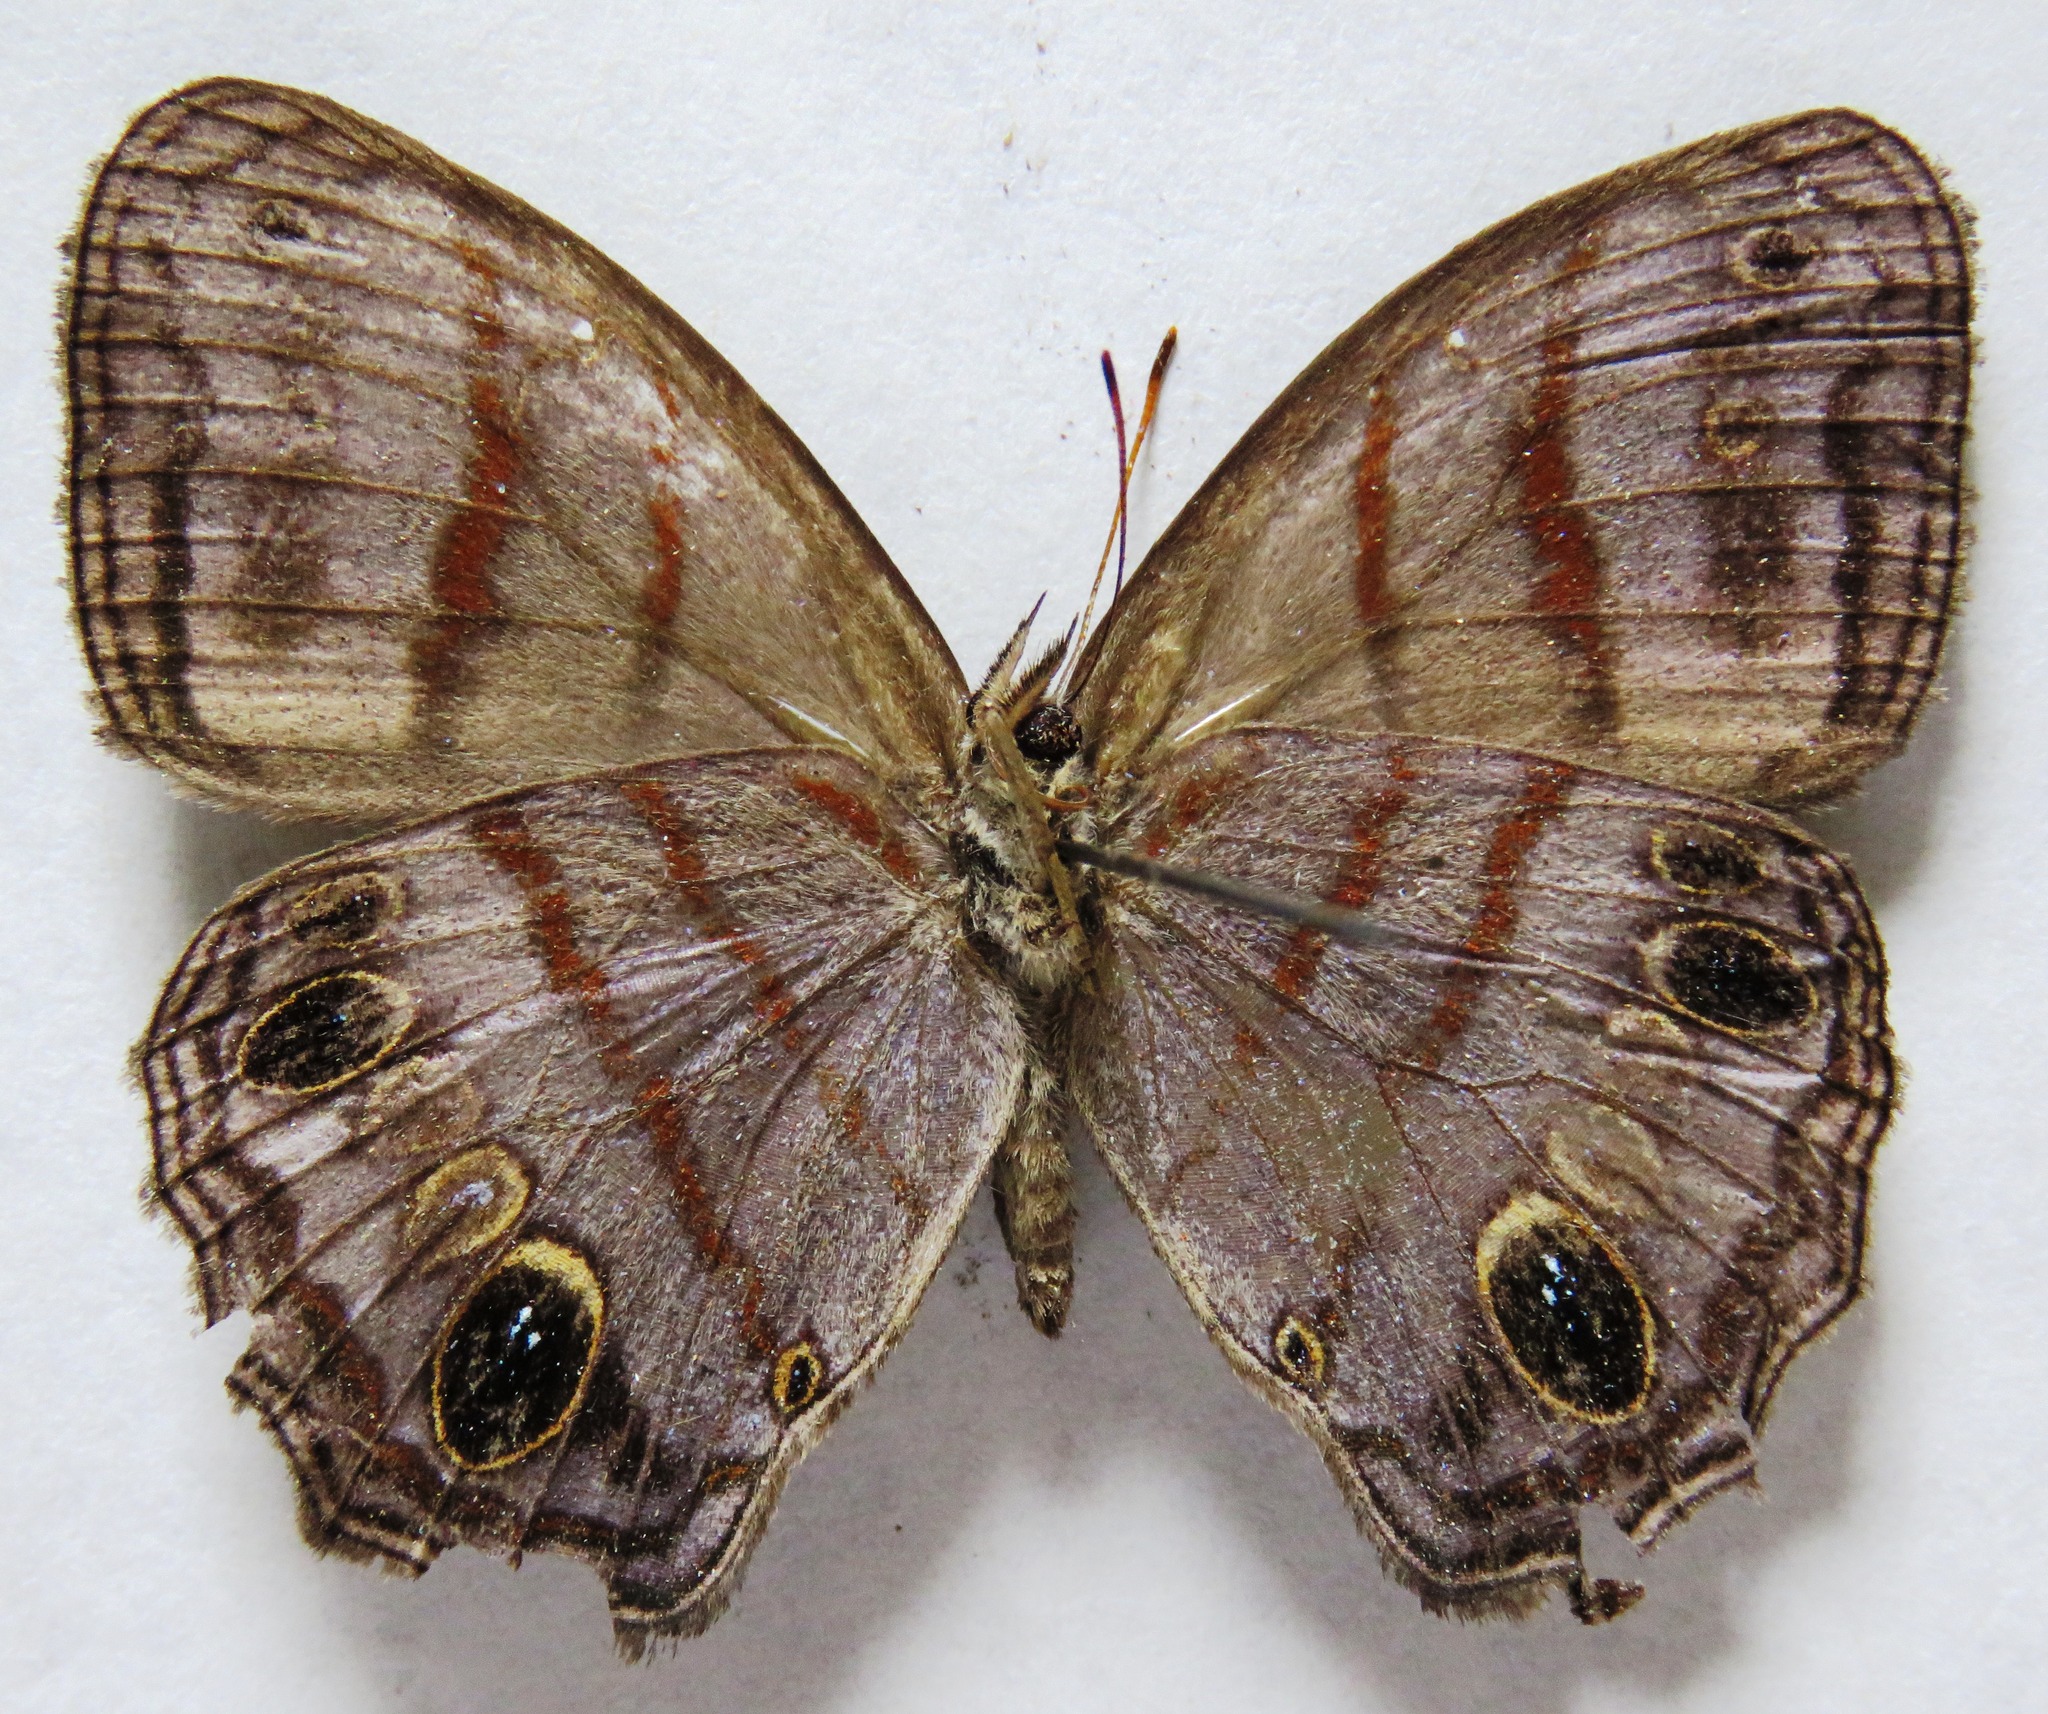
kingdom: Animalia
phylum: Arthropoda
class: Insecta
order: Lepidoptera
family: Nymphalidae
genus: Magneuptychia
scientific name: Magneuptychia libye
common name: Blue-gray satyr
